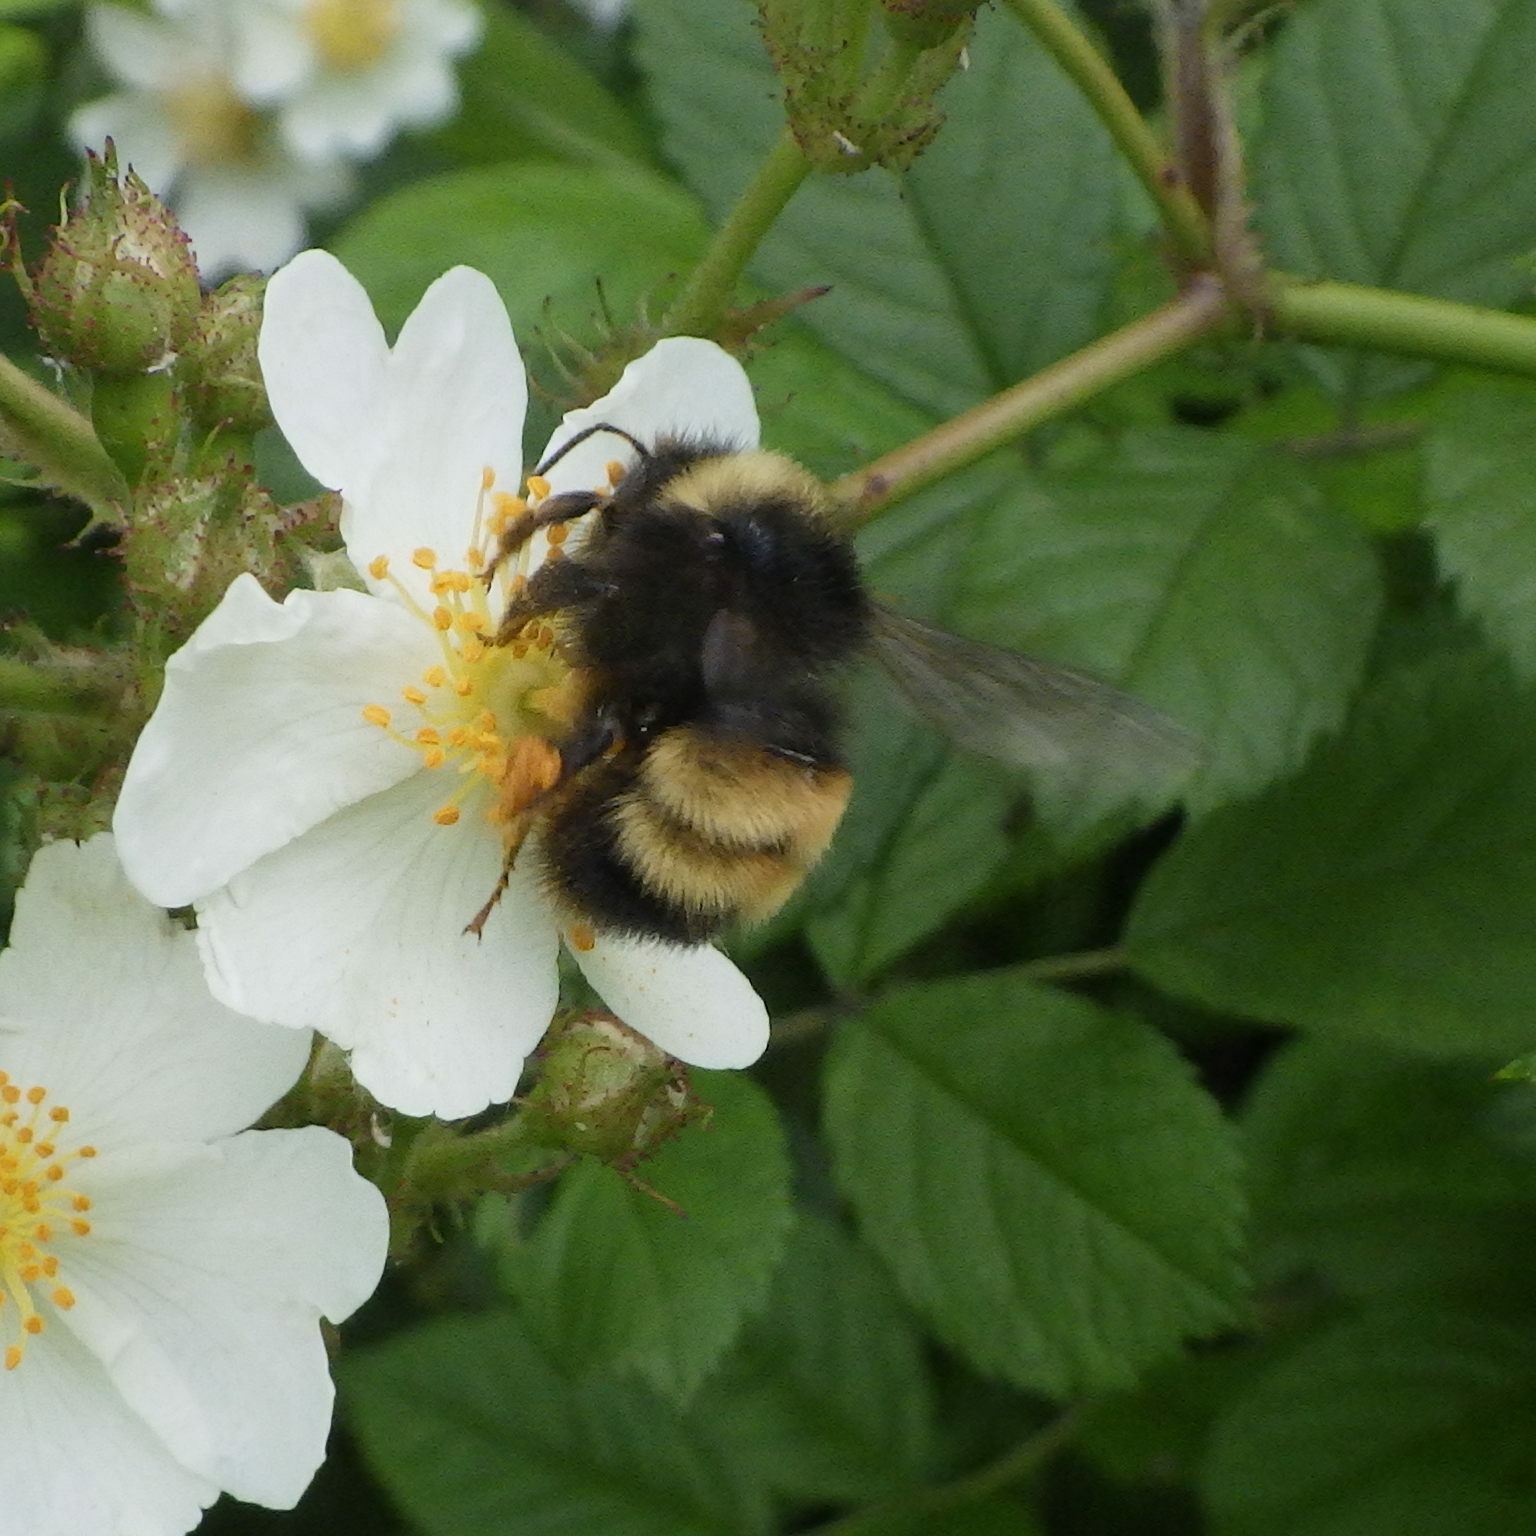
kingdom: Animalia
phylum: Arthropoda
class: Insecta
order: Hymenoptera
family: Apidae
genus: Bombus
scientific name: Bombus terricola
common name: Yellow-banded bumble bee
